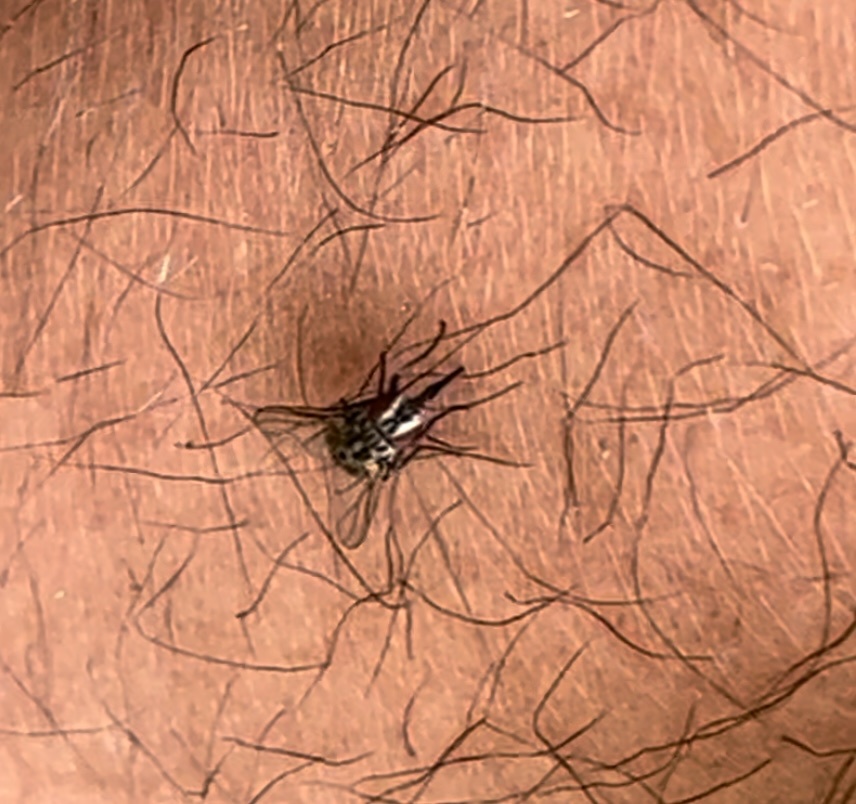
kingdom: Animalia
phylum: Arthropoda
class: Insecta
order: Diptera
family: Muscidae
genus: Stomoxys
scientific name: Stomoxys calcitrans
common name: Stable fly
